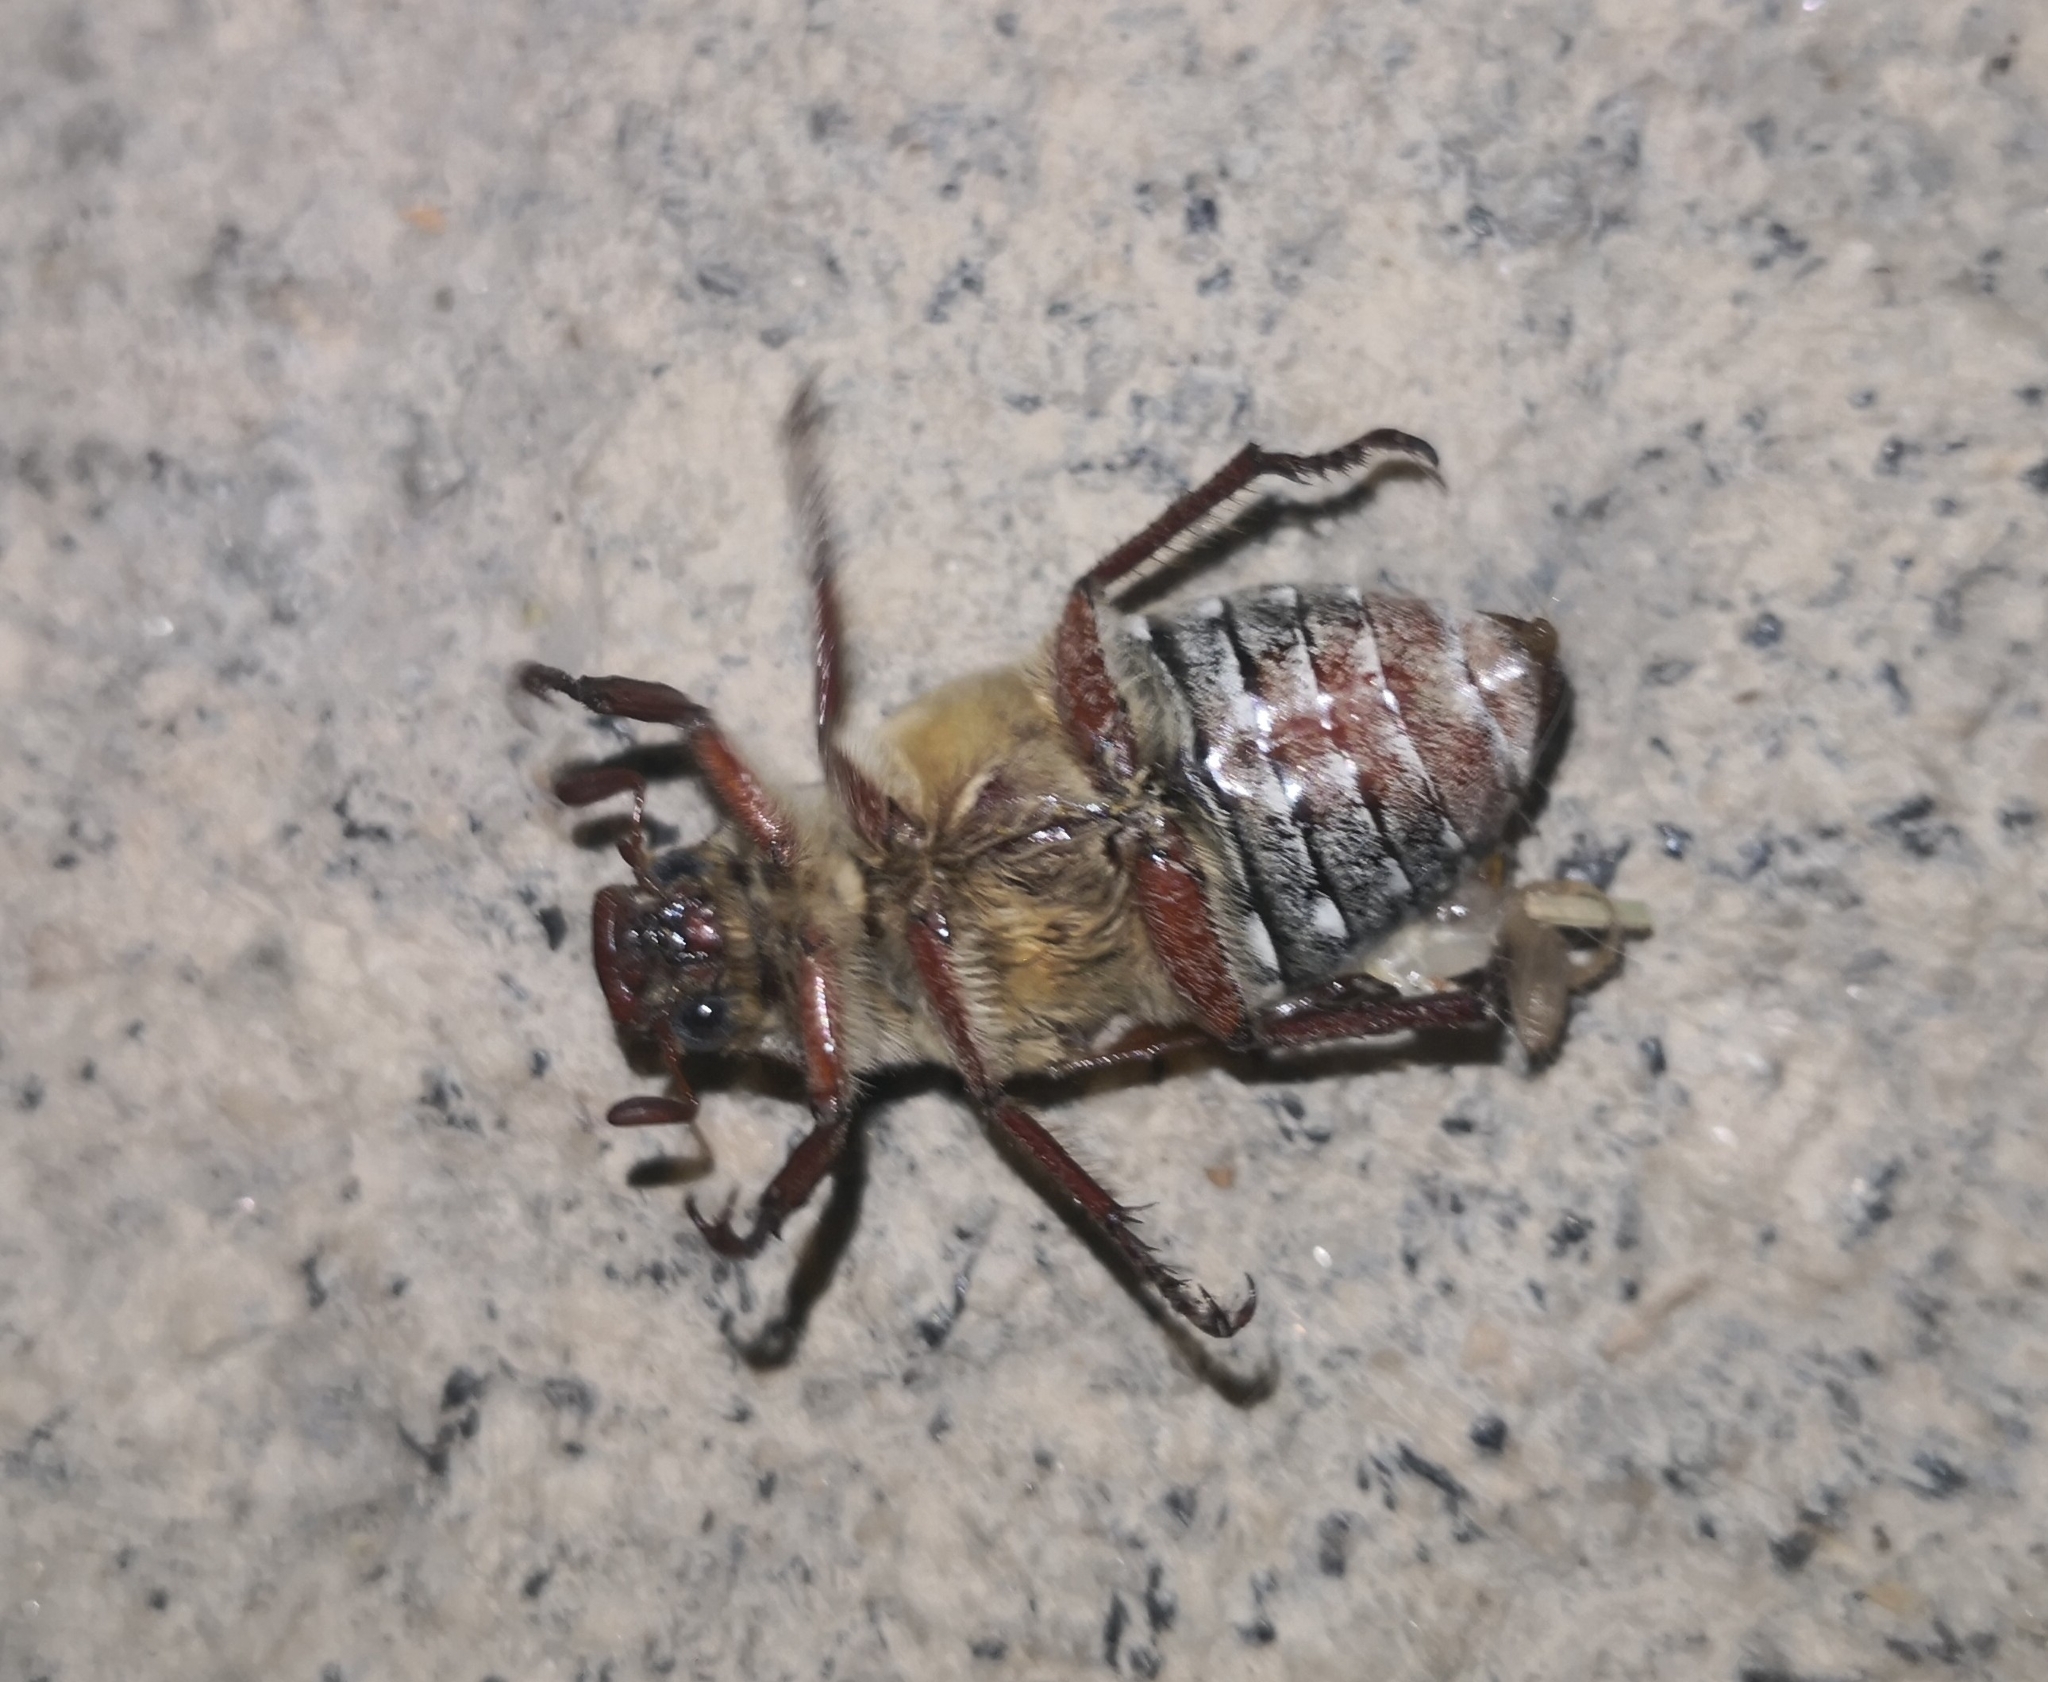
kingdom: Animalia
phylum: Arthropoda
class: Insecta
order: Coleoptera
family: Scarabaeidae
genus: Anoxia
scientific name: Anoxia australis
